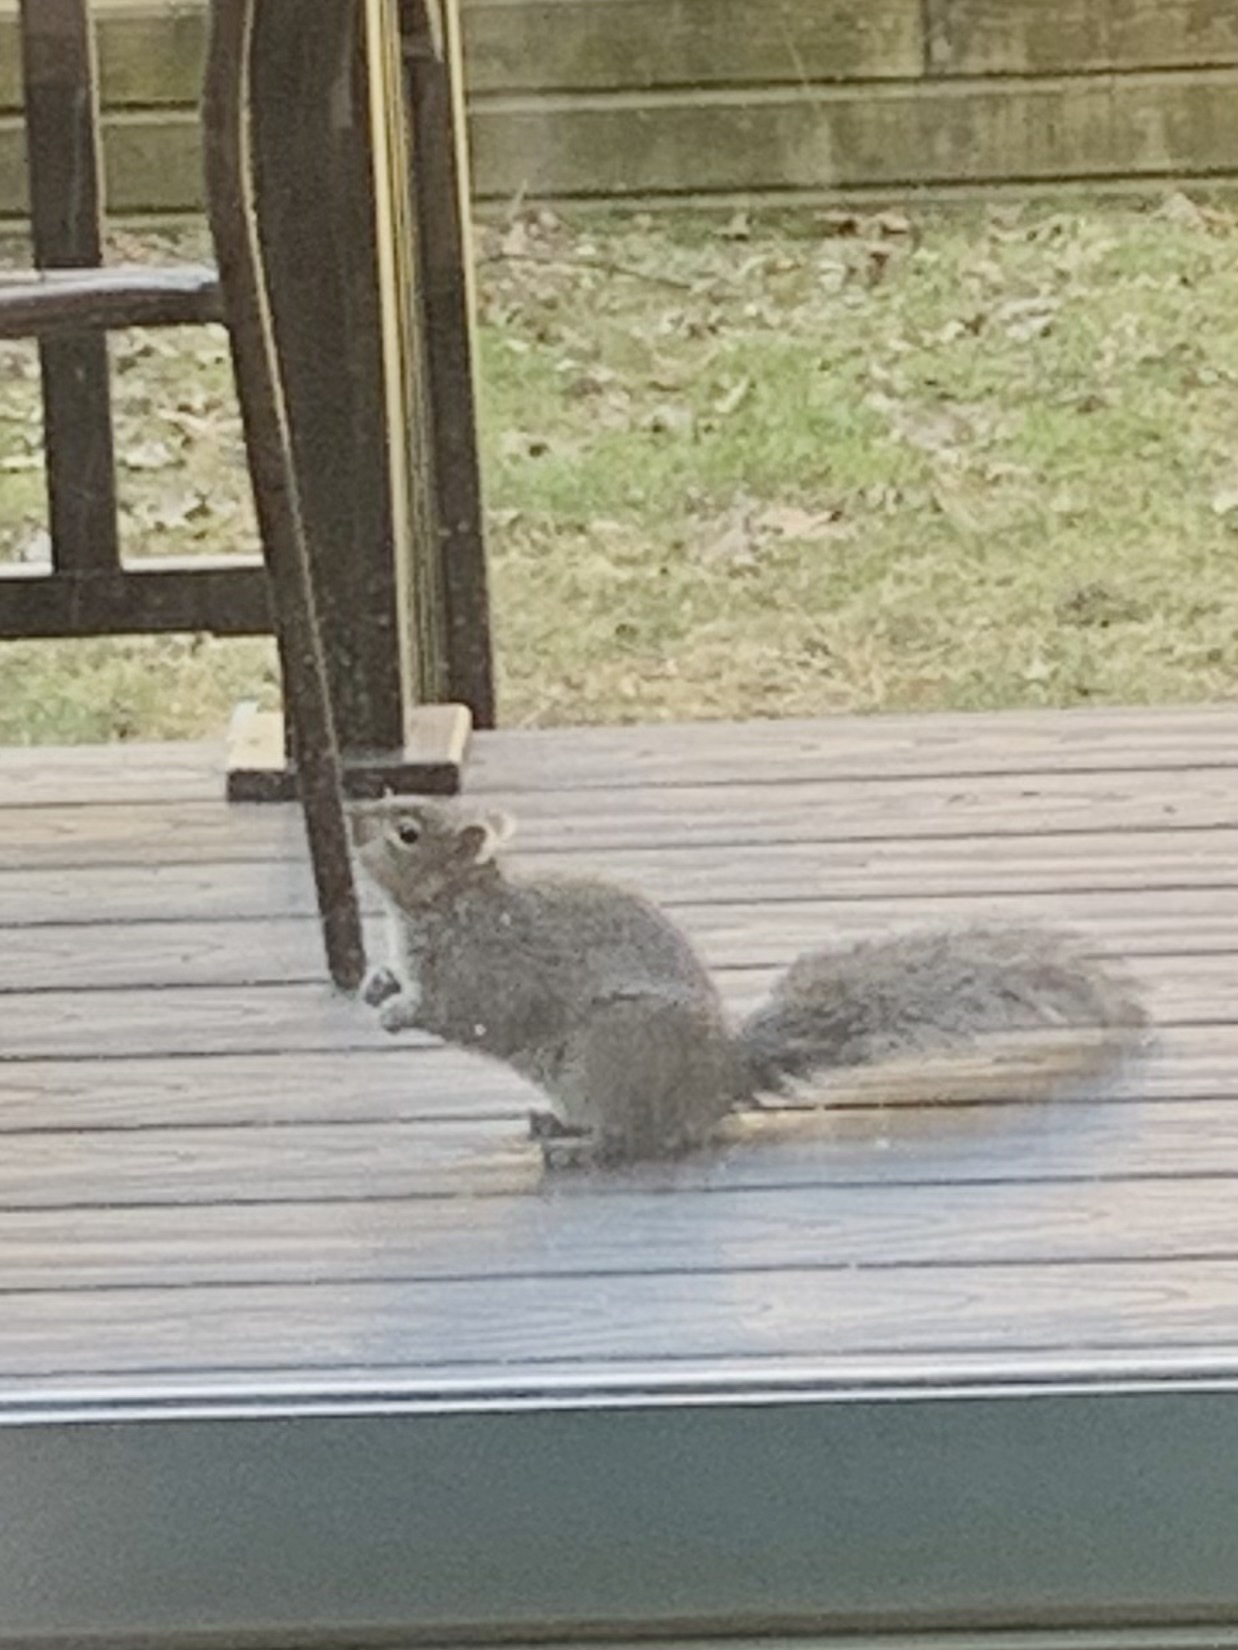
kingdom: Animalia
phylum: Chordata
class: Mammalia
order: Rodentia
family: Sciuridae
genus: Sciurus
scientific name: Sciurus carolinensis
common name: Eastern gray squirrel
